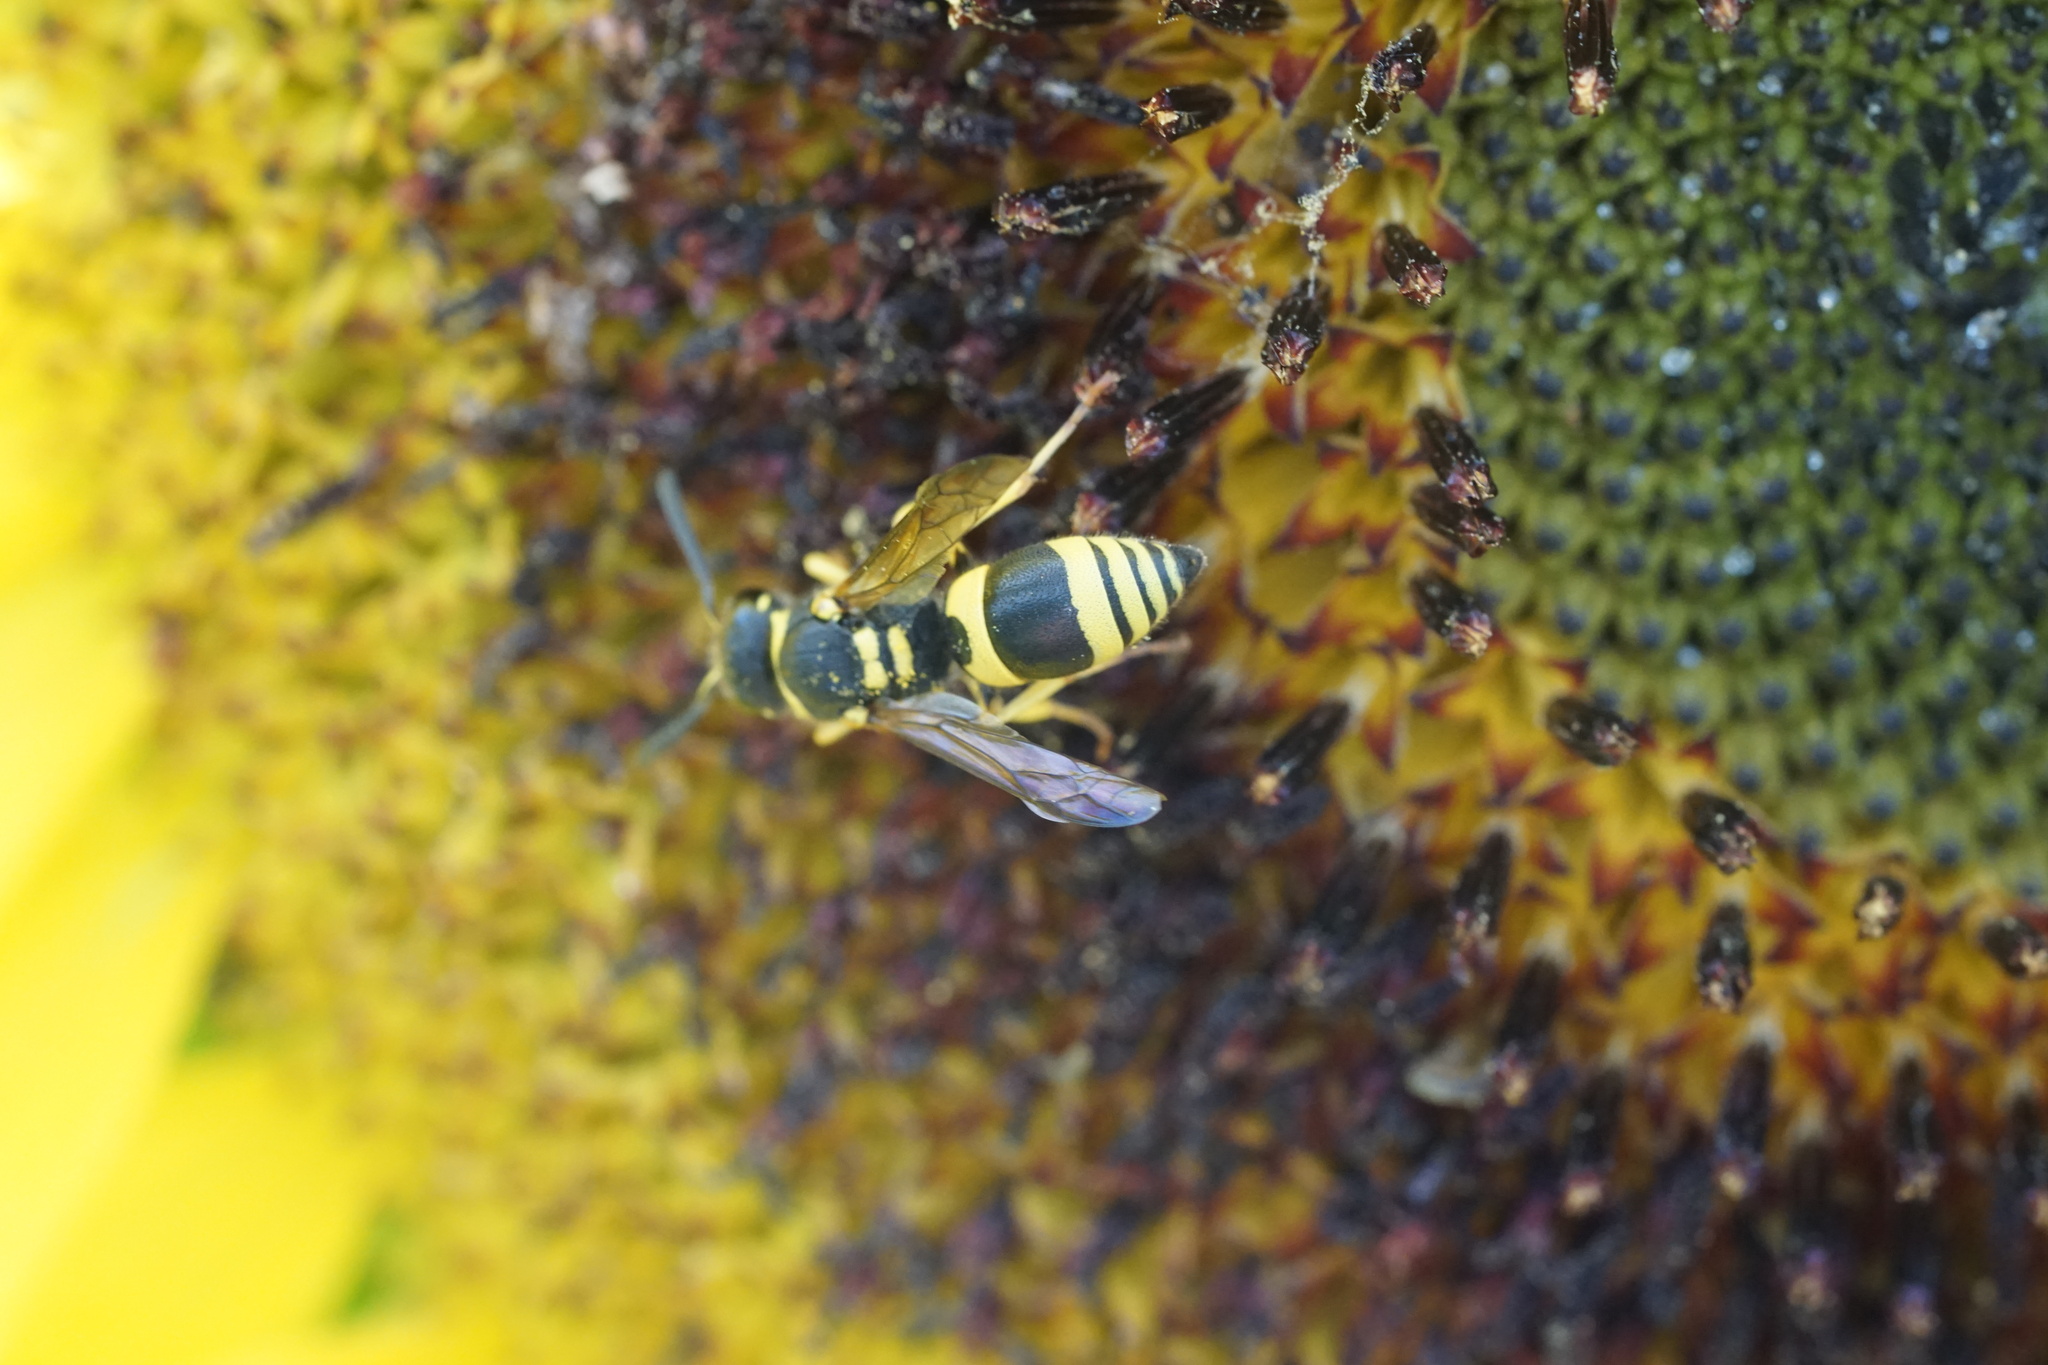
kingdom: Animalia
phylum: Arthropoda
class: Insecta
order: Hymenoptera
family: Vespidae
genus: Ancistrocerus
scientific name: Ancistrocerus gazella
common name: European tube wasp
